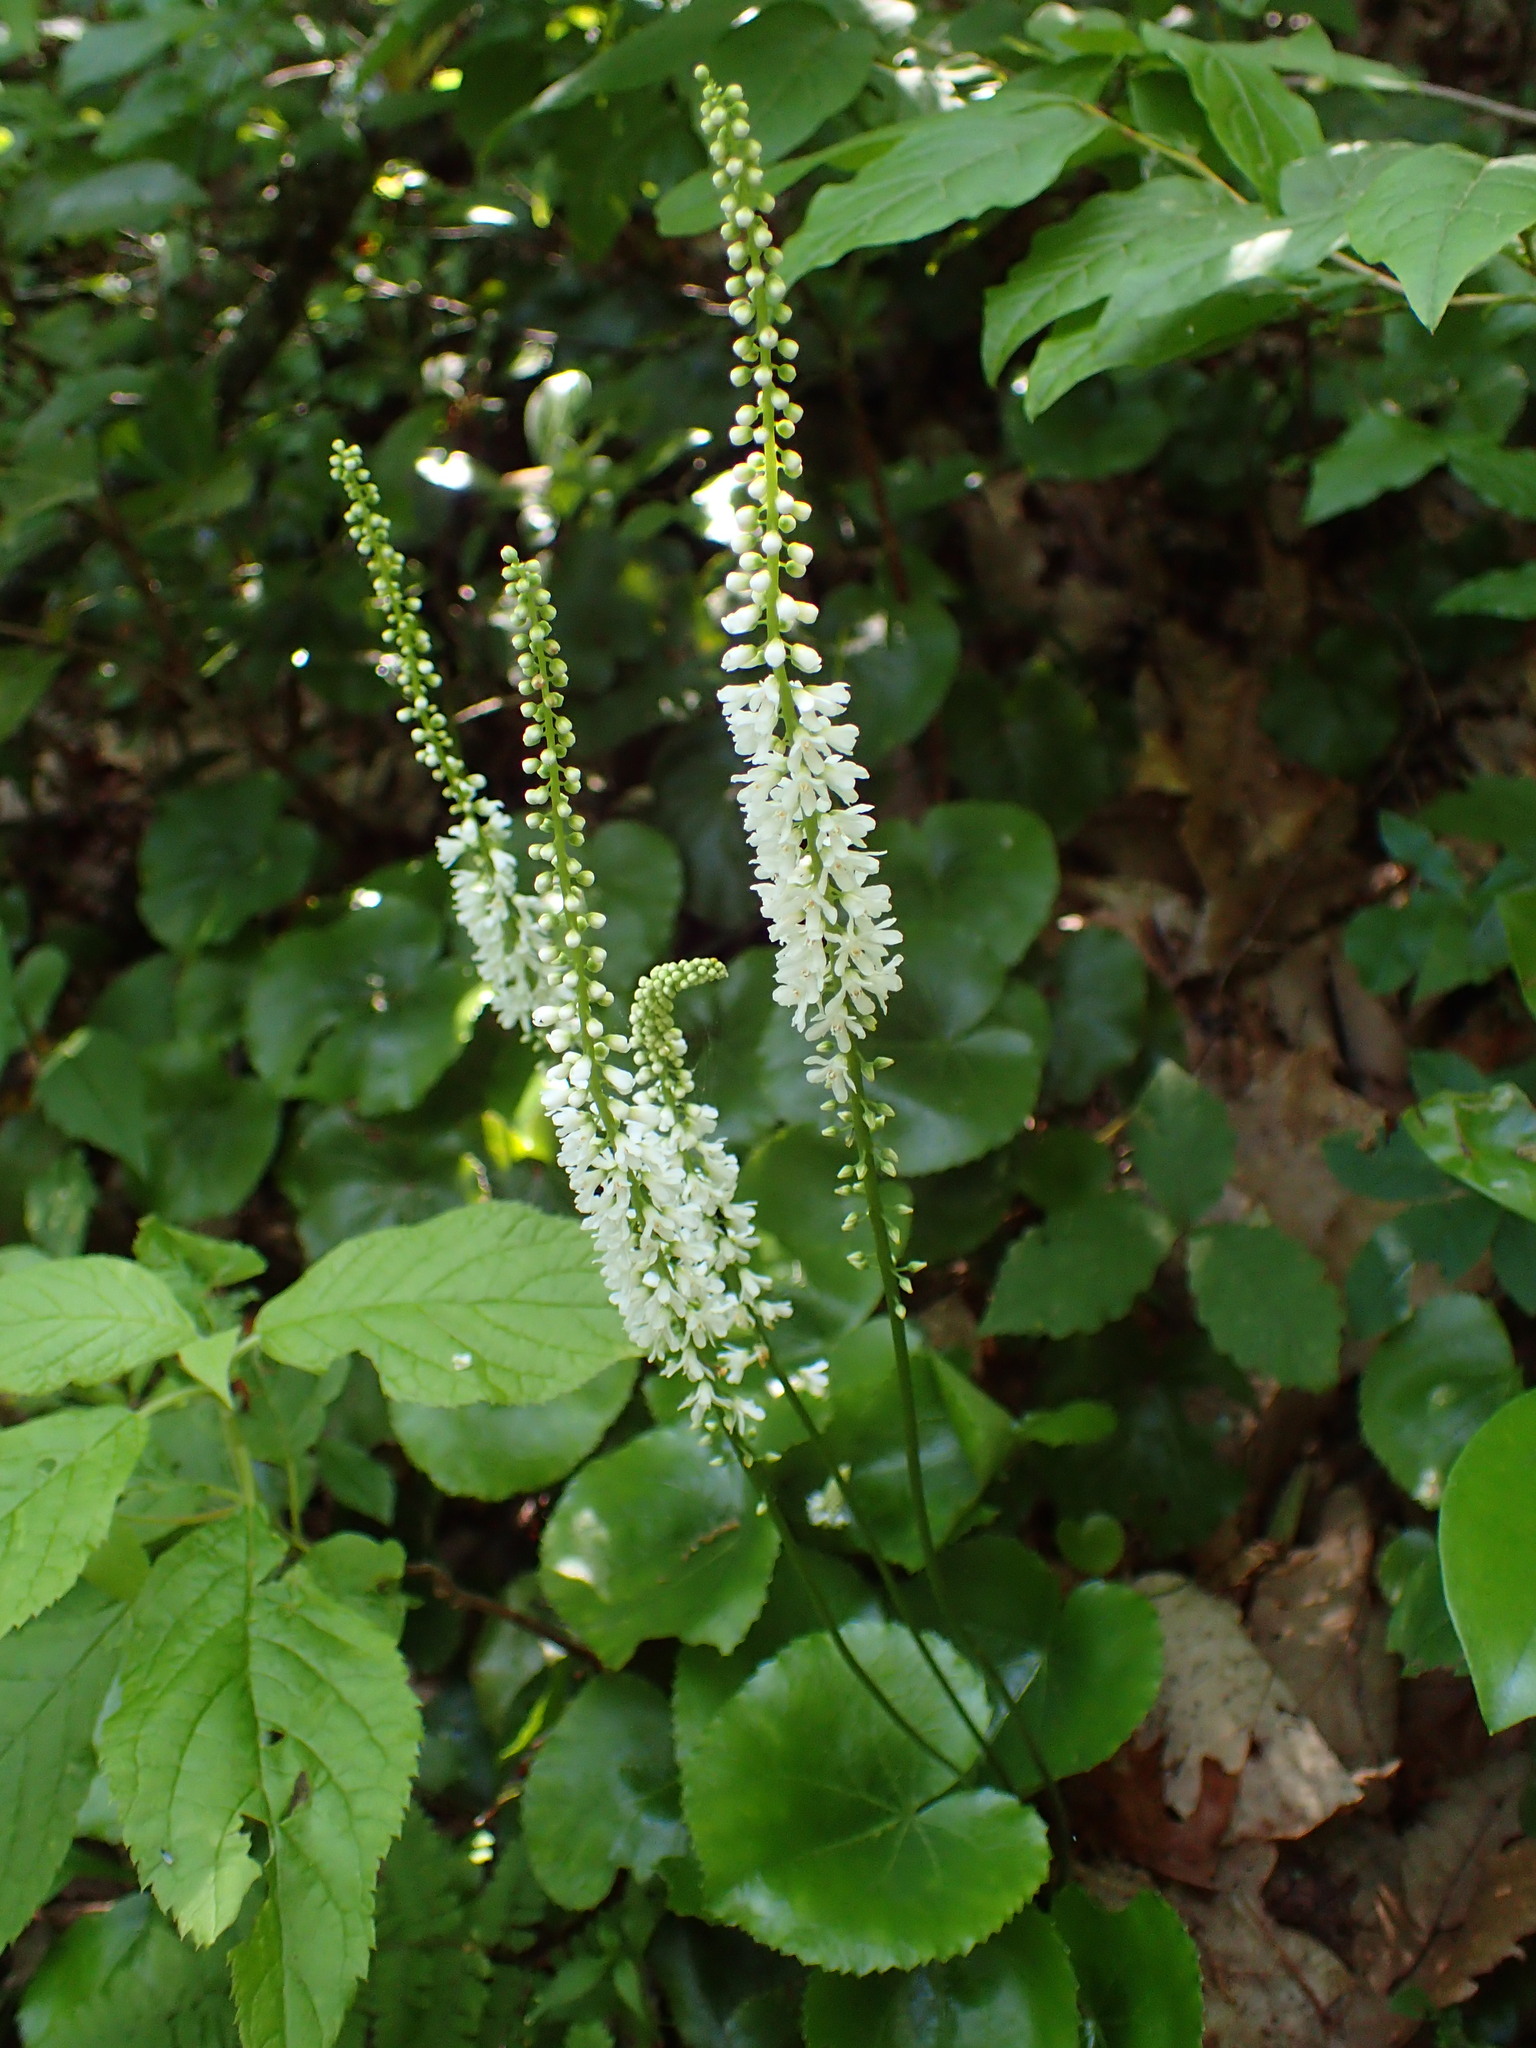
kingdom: Plantae
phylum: Tracheophyta
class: Magnoliopsida
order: Ericales
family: Diapensiaceae
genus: Galax
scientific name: Galax urceolata
